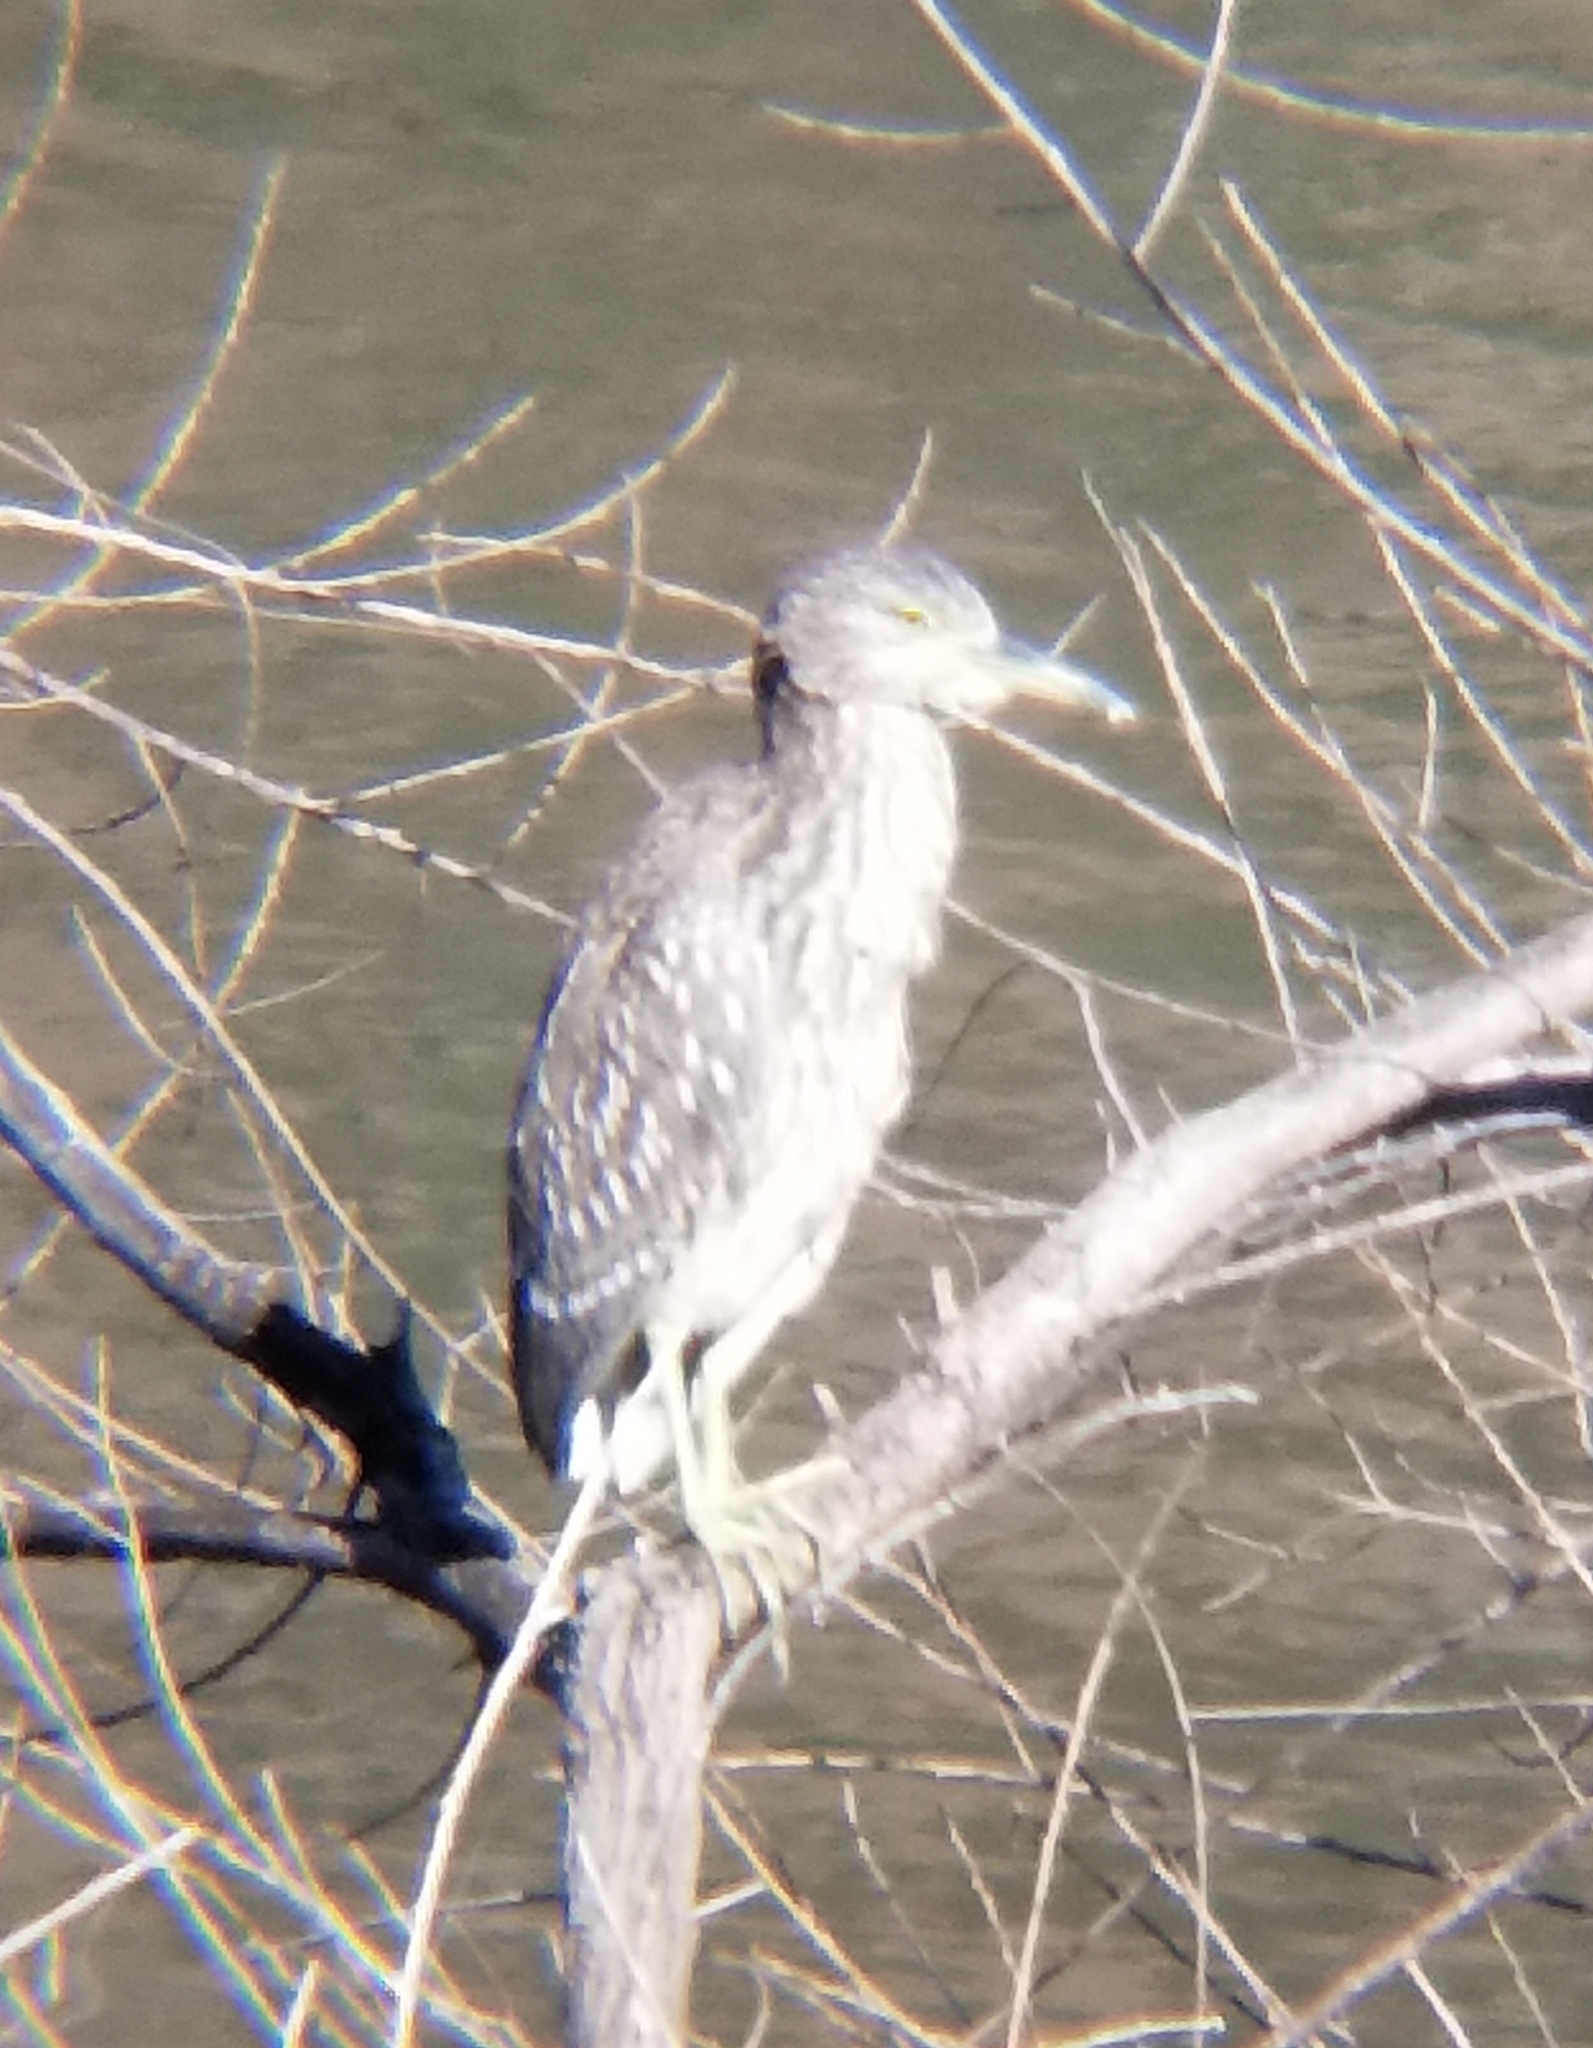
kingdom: Animalia
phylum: Chordata
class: Aves
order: Pelecaniformes
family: Ardeidae
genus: Nycticorax
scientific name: Nycticorax nycticorax
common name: Black-crowned night heron
